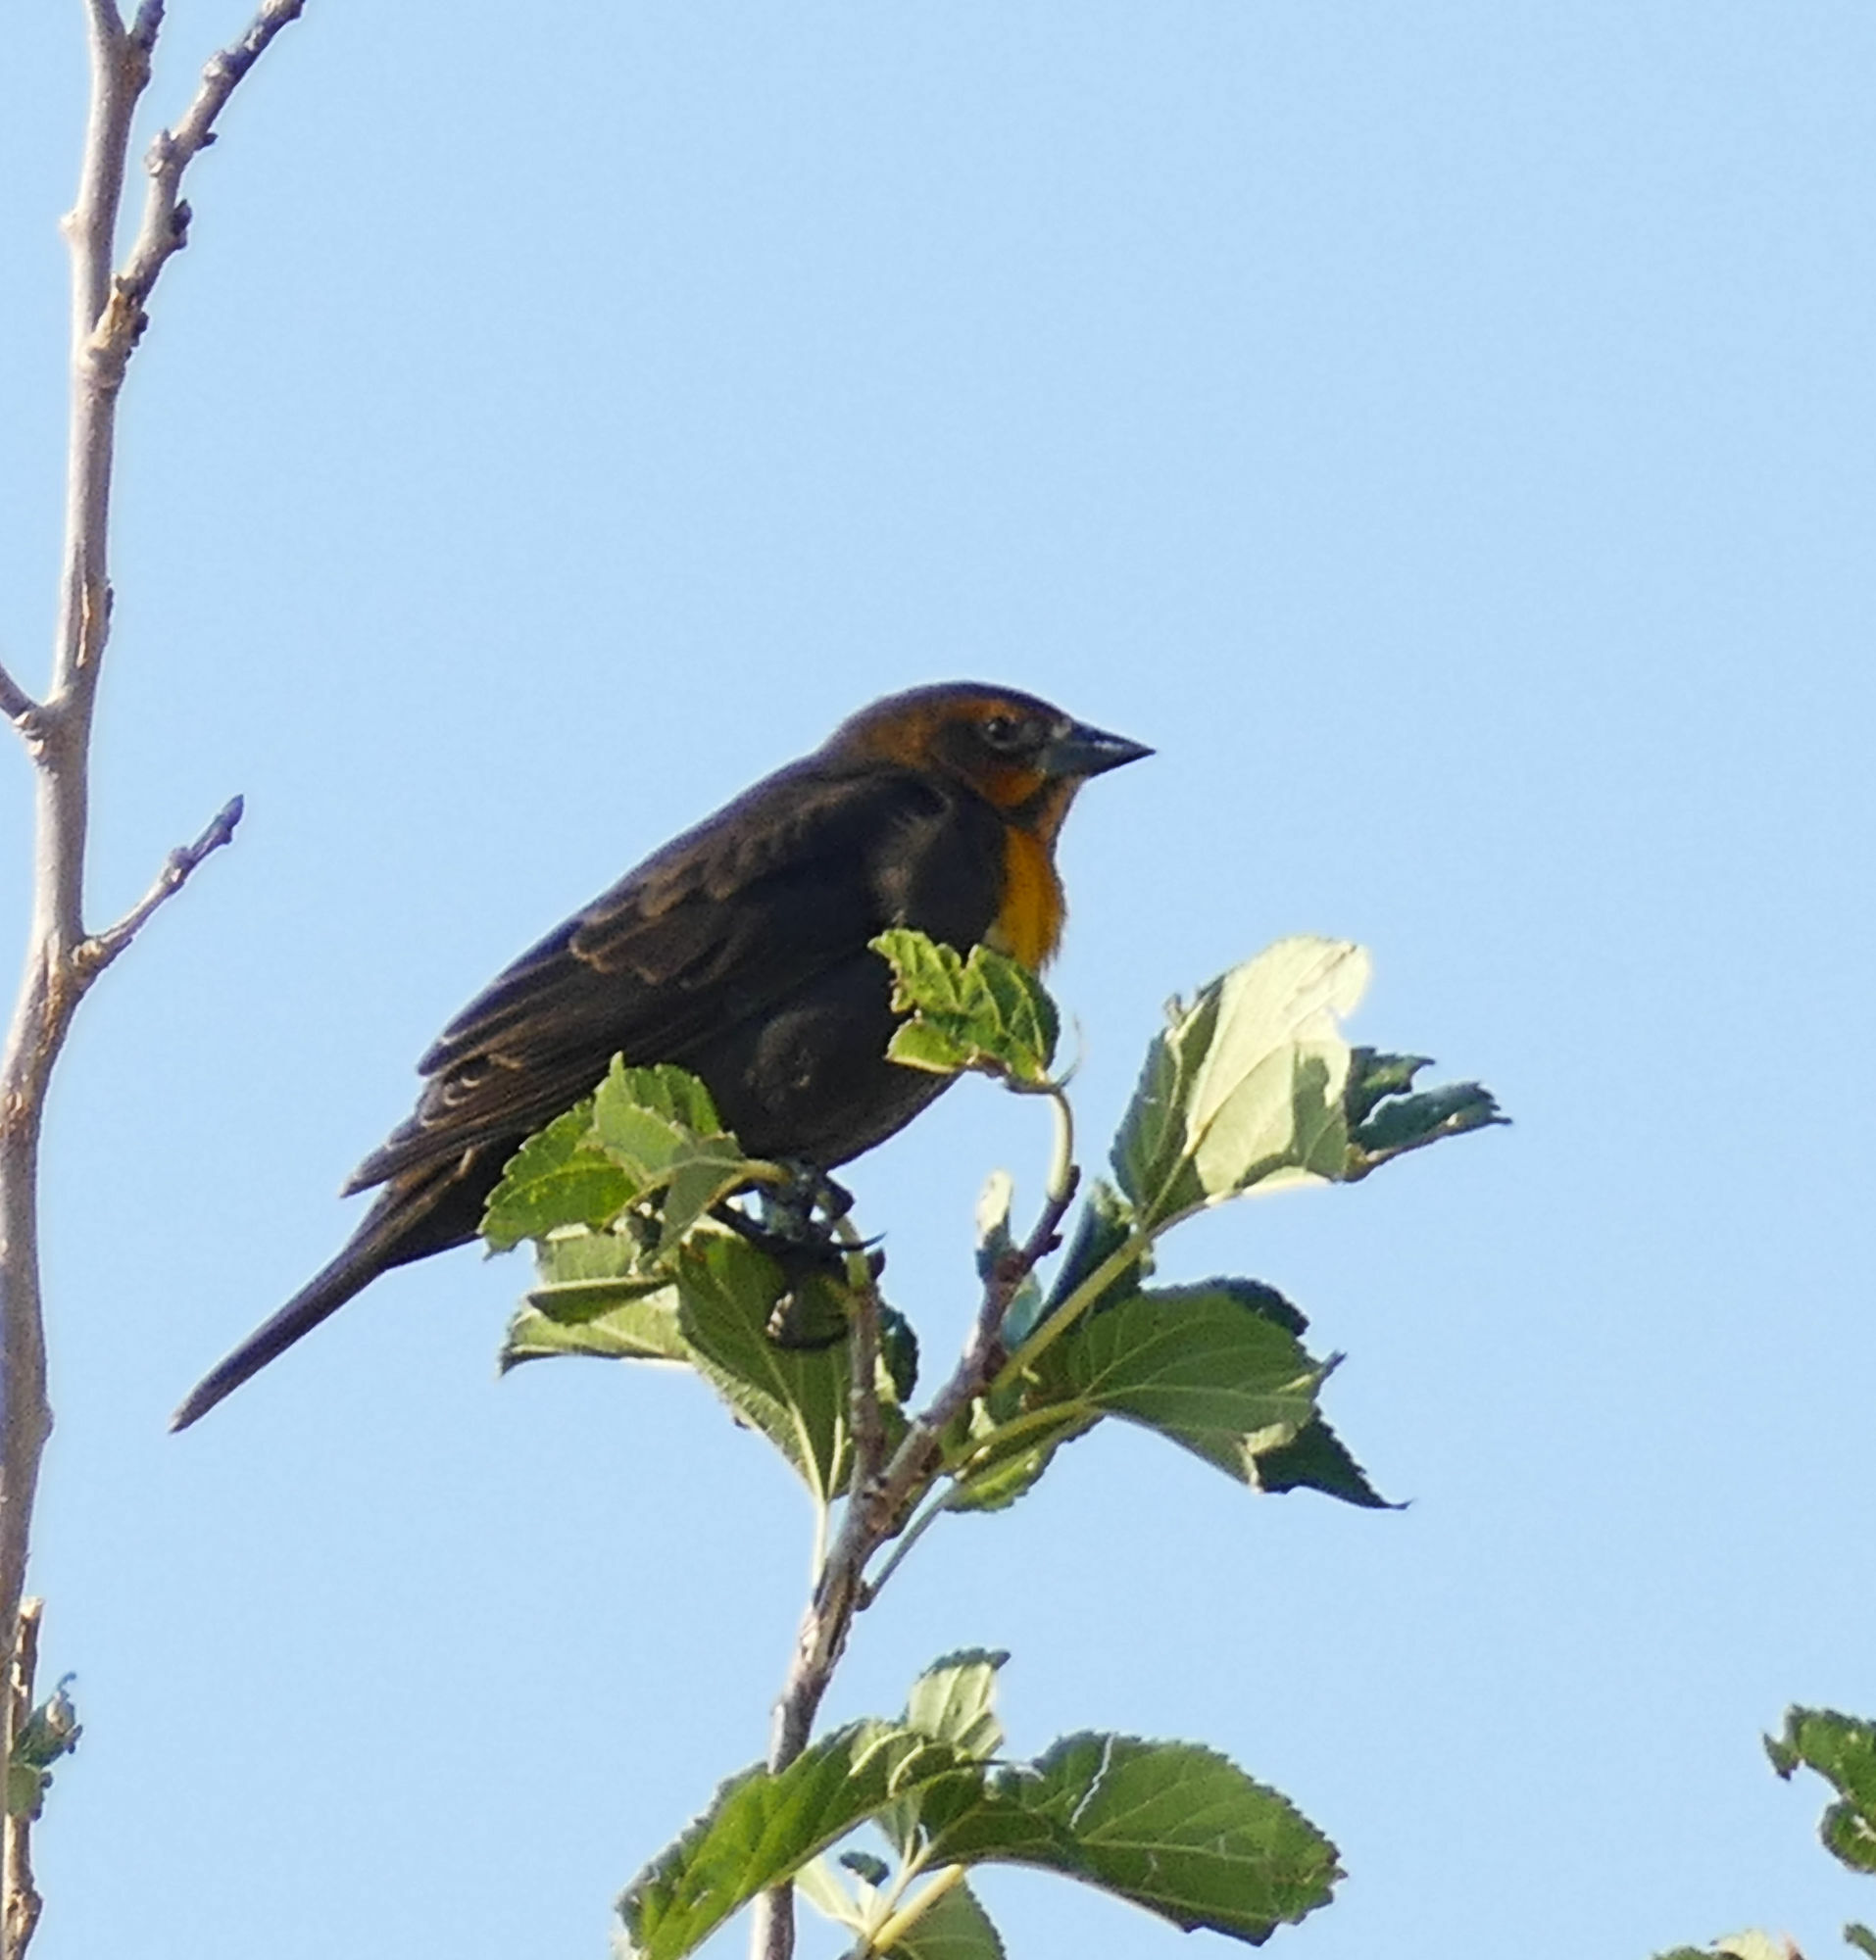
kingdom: Animalia
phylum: Chordata
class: Aves
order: Passeriformes
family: Icteridae
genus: Xanthocephalus
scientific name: Xanthocephalus xanthocephalus
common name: Yellow-headed blackbird
